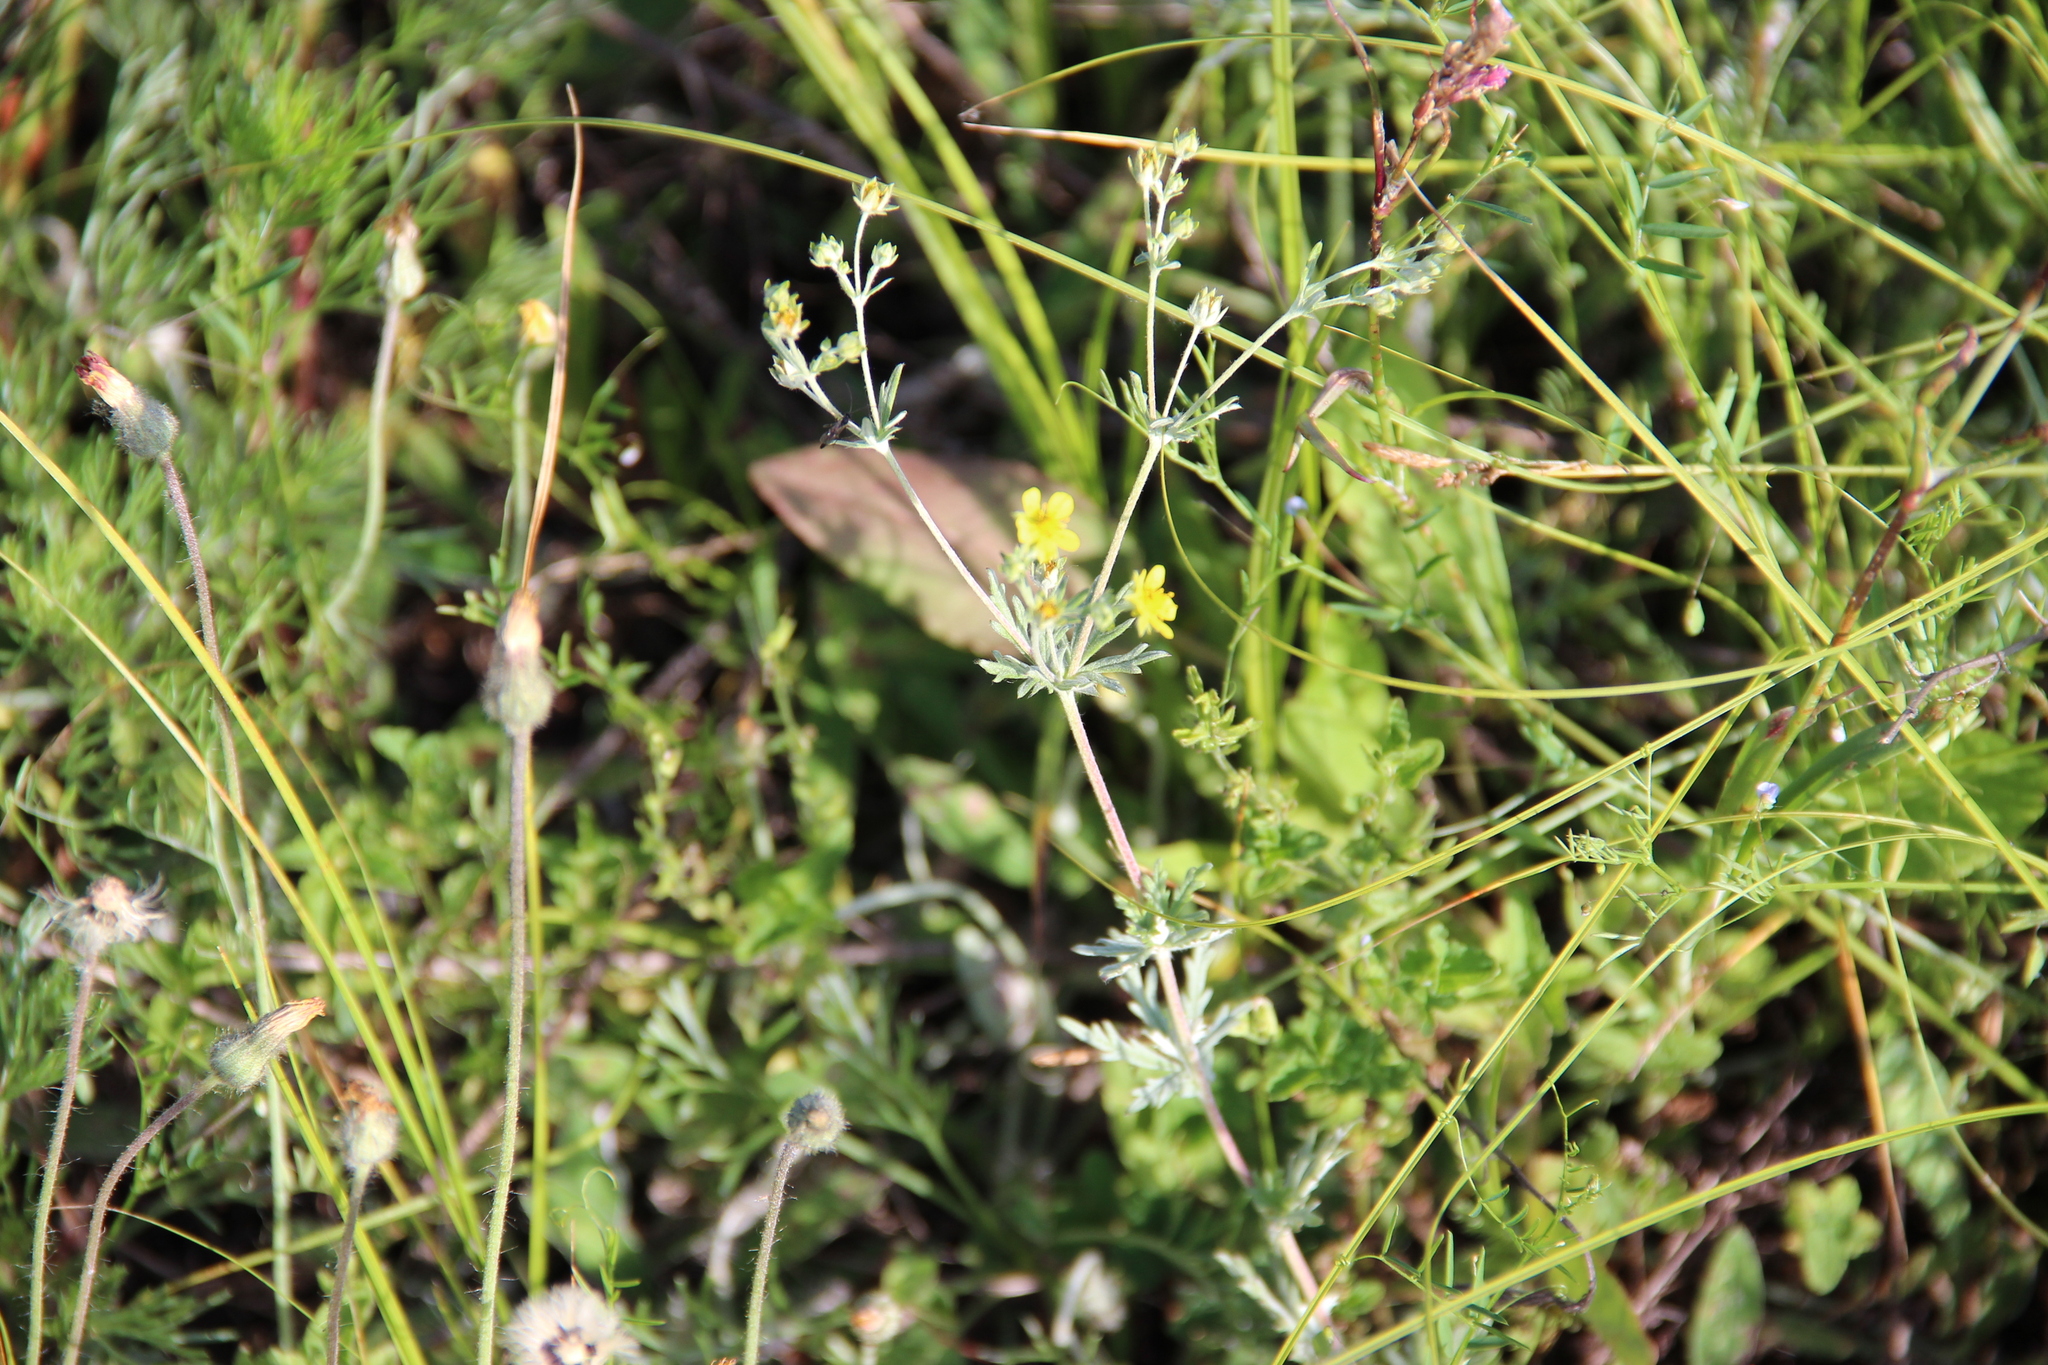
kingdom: Plantae
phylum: Tracheophyta
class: Magnoliopsida
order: Rosales
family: Rosaceae
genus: Potentilla
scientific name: Potentilla argentea
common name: Hoary cinquefoil
